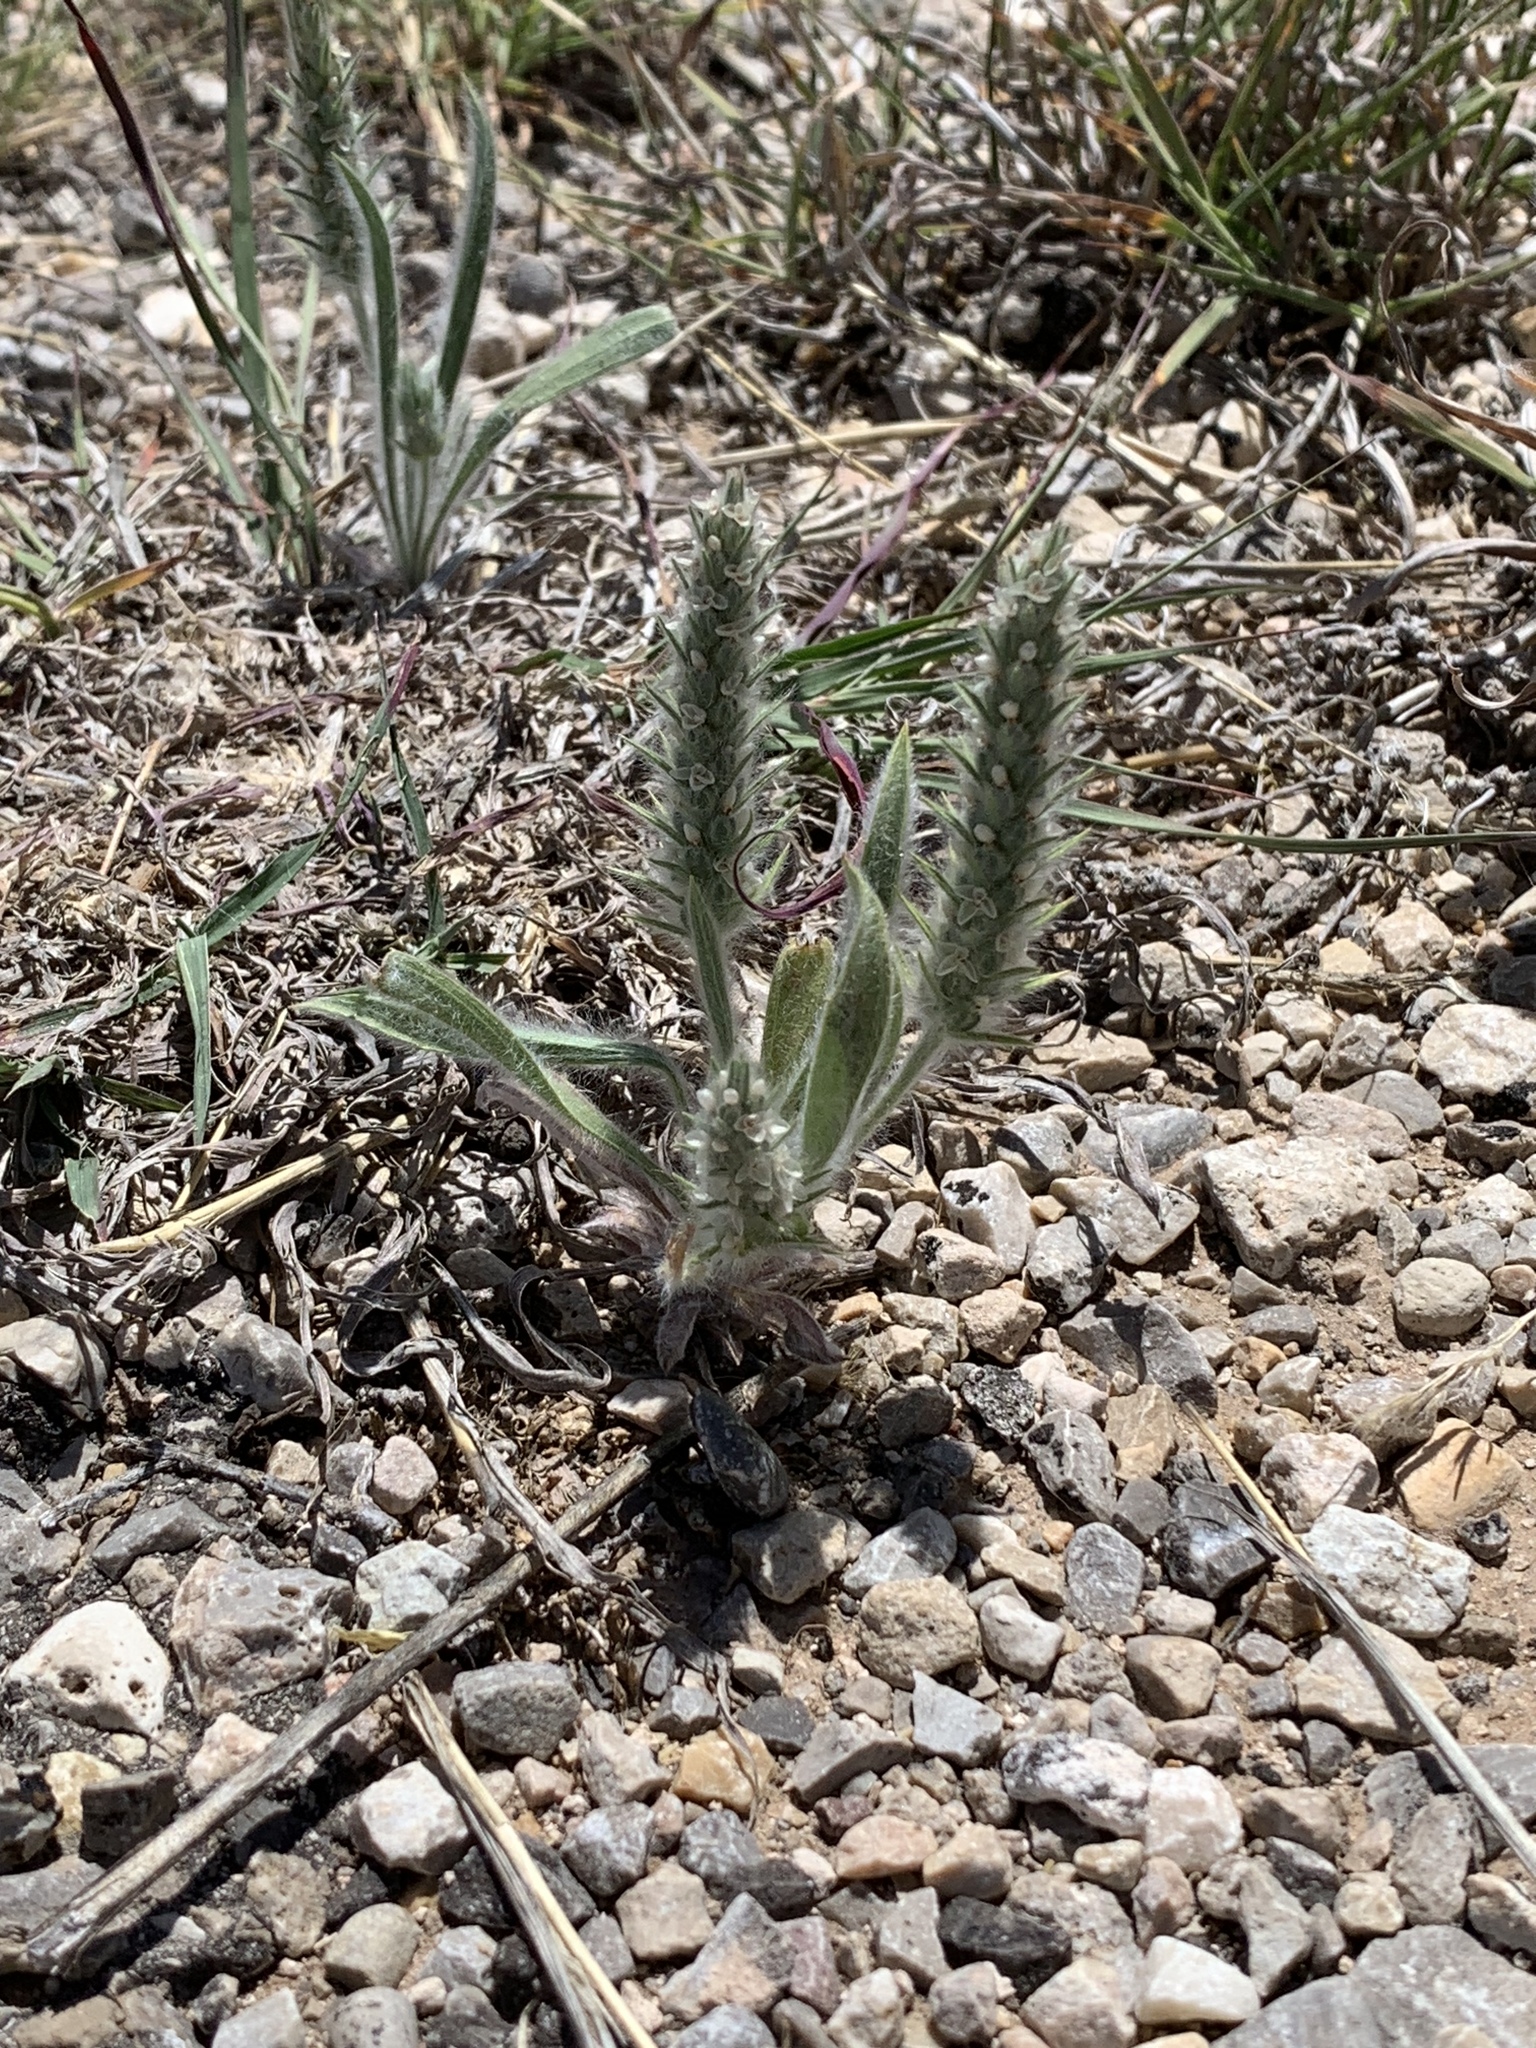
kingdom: Plantae
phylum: Tracheophyta
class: Magnoliopsida
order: Lamiales
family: Plantaginaceae
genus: Plantago
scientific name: Plantago patagonica
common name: Patagonia indian-wheat
